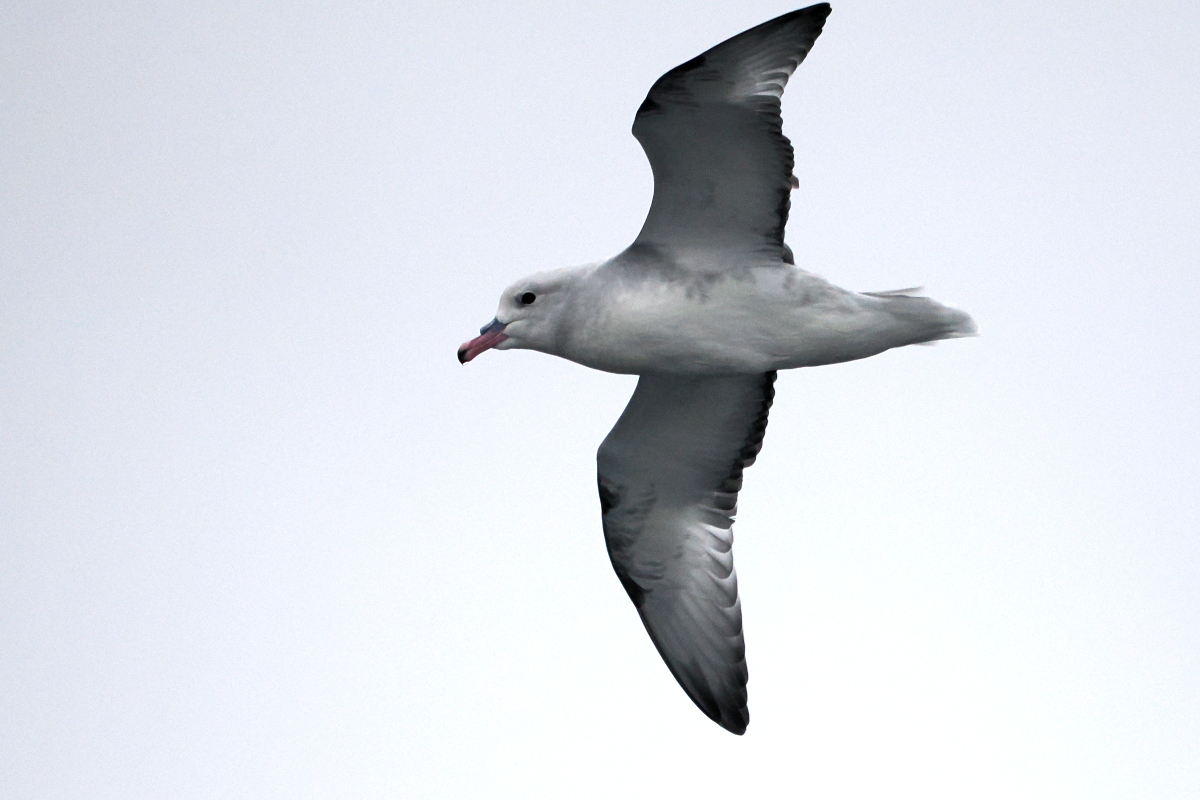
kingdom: Animalia
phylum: Chordata
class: Aves
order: Procellariiformes
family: Procellariidae
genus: Fulmarus
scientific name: Fulmarus glacialoides
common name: Southern fulmar
